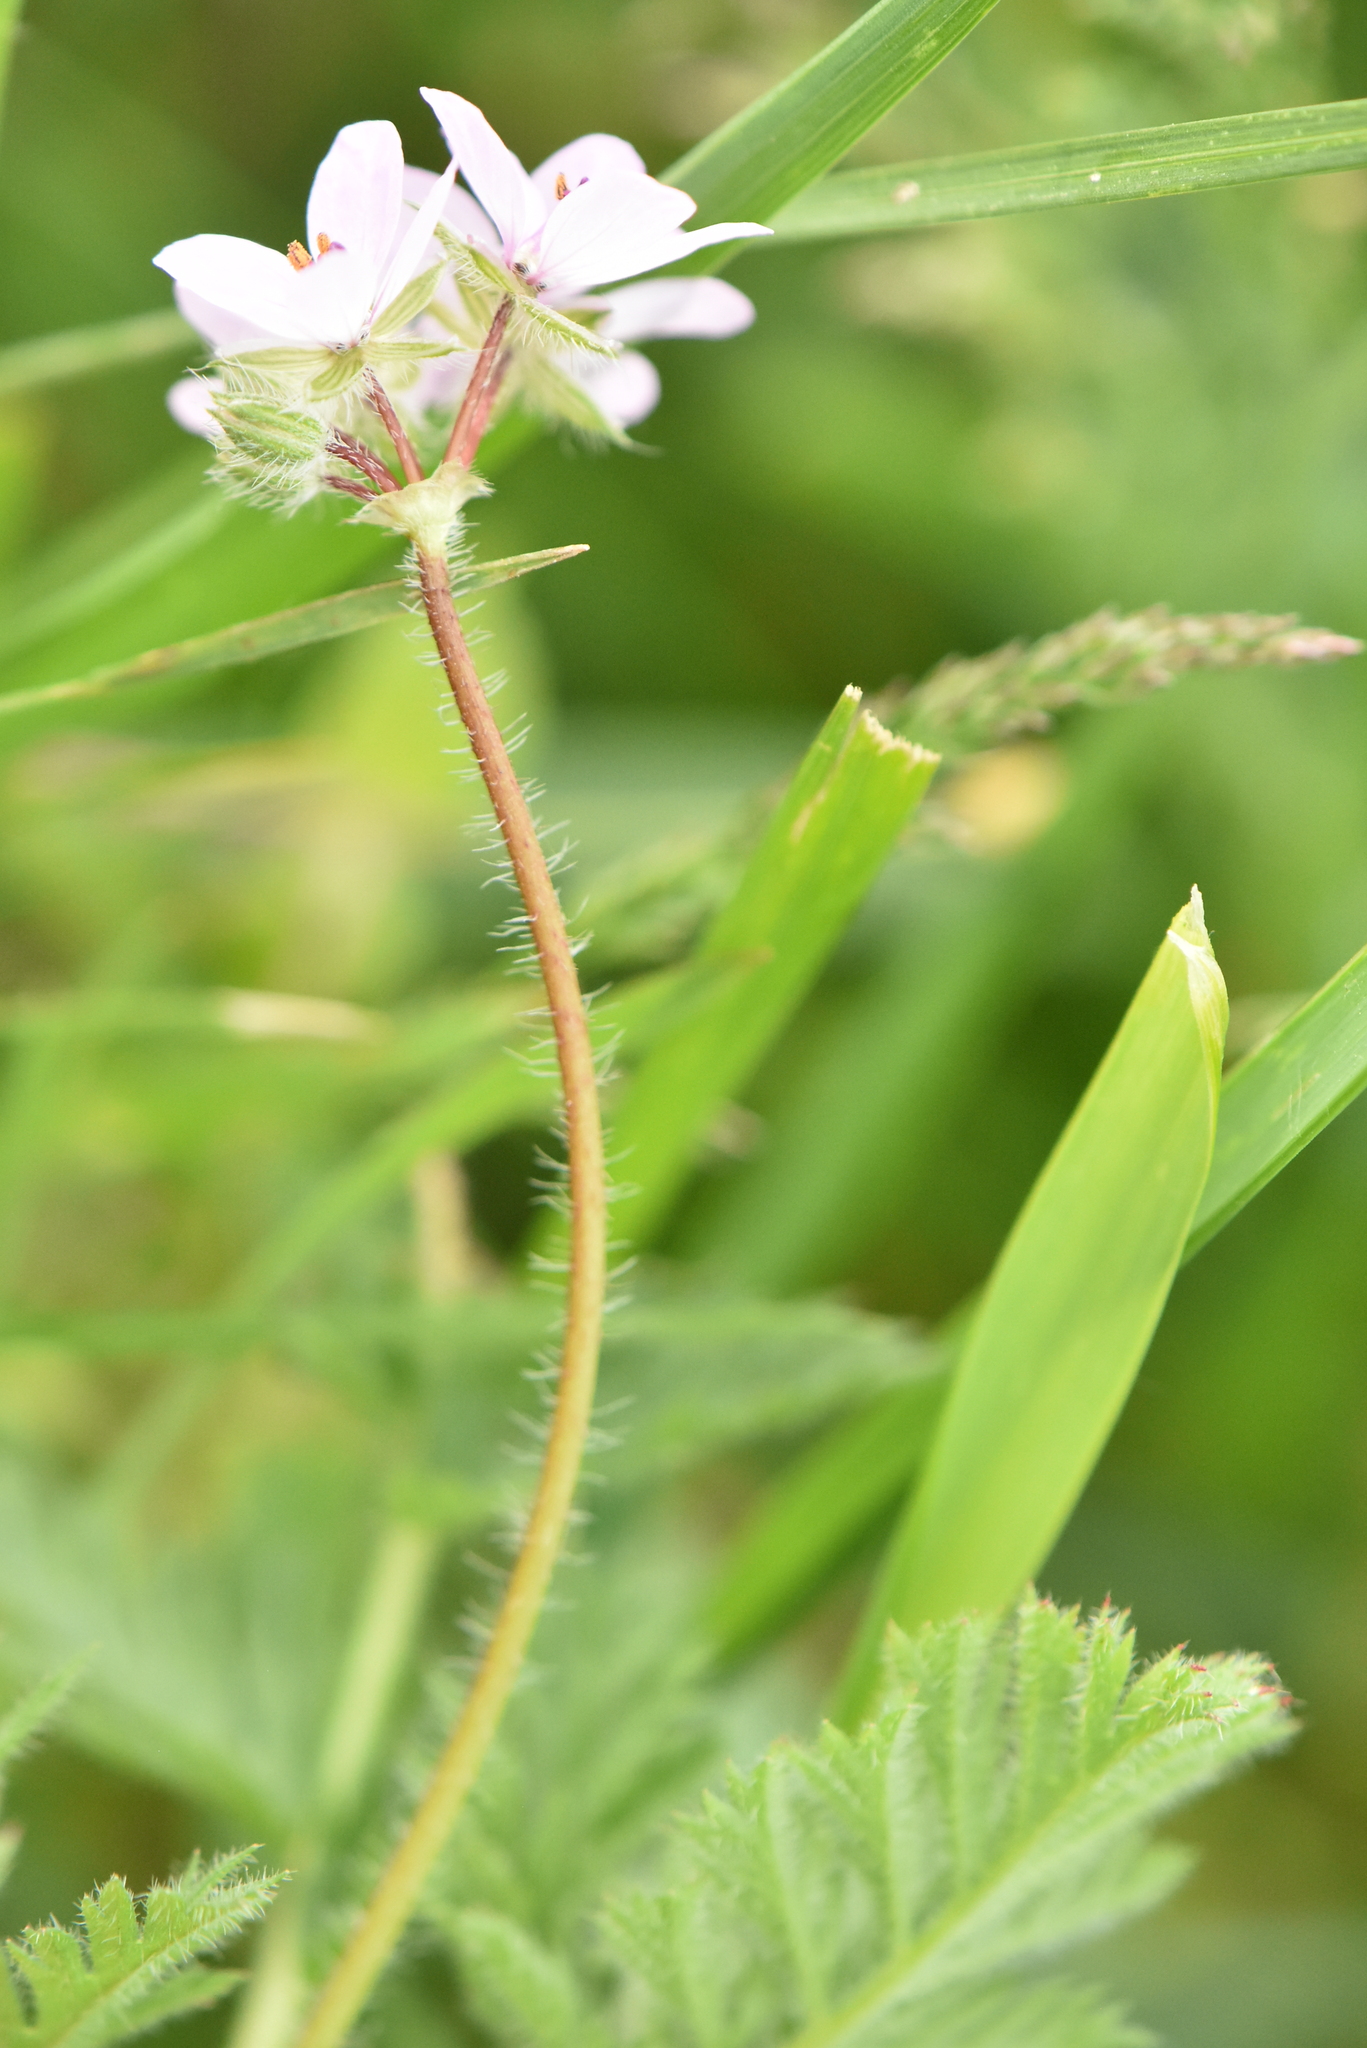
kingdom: Plantae
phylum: Tracheophyta
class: Magnoliopsida
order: Geraniales
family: Geraniaceae
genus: Erodium
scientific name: Erodium cicutarium
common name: Common stork's-bill
